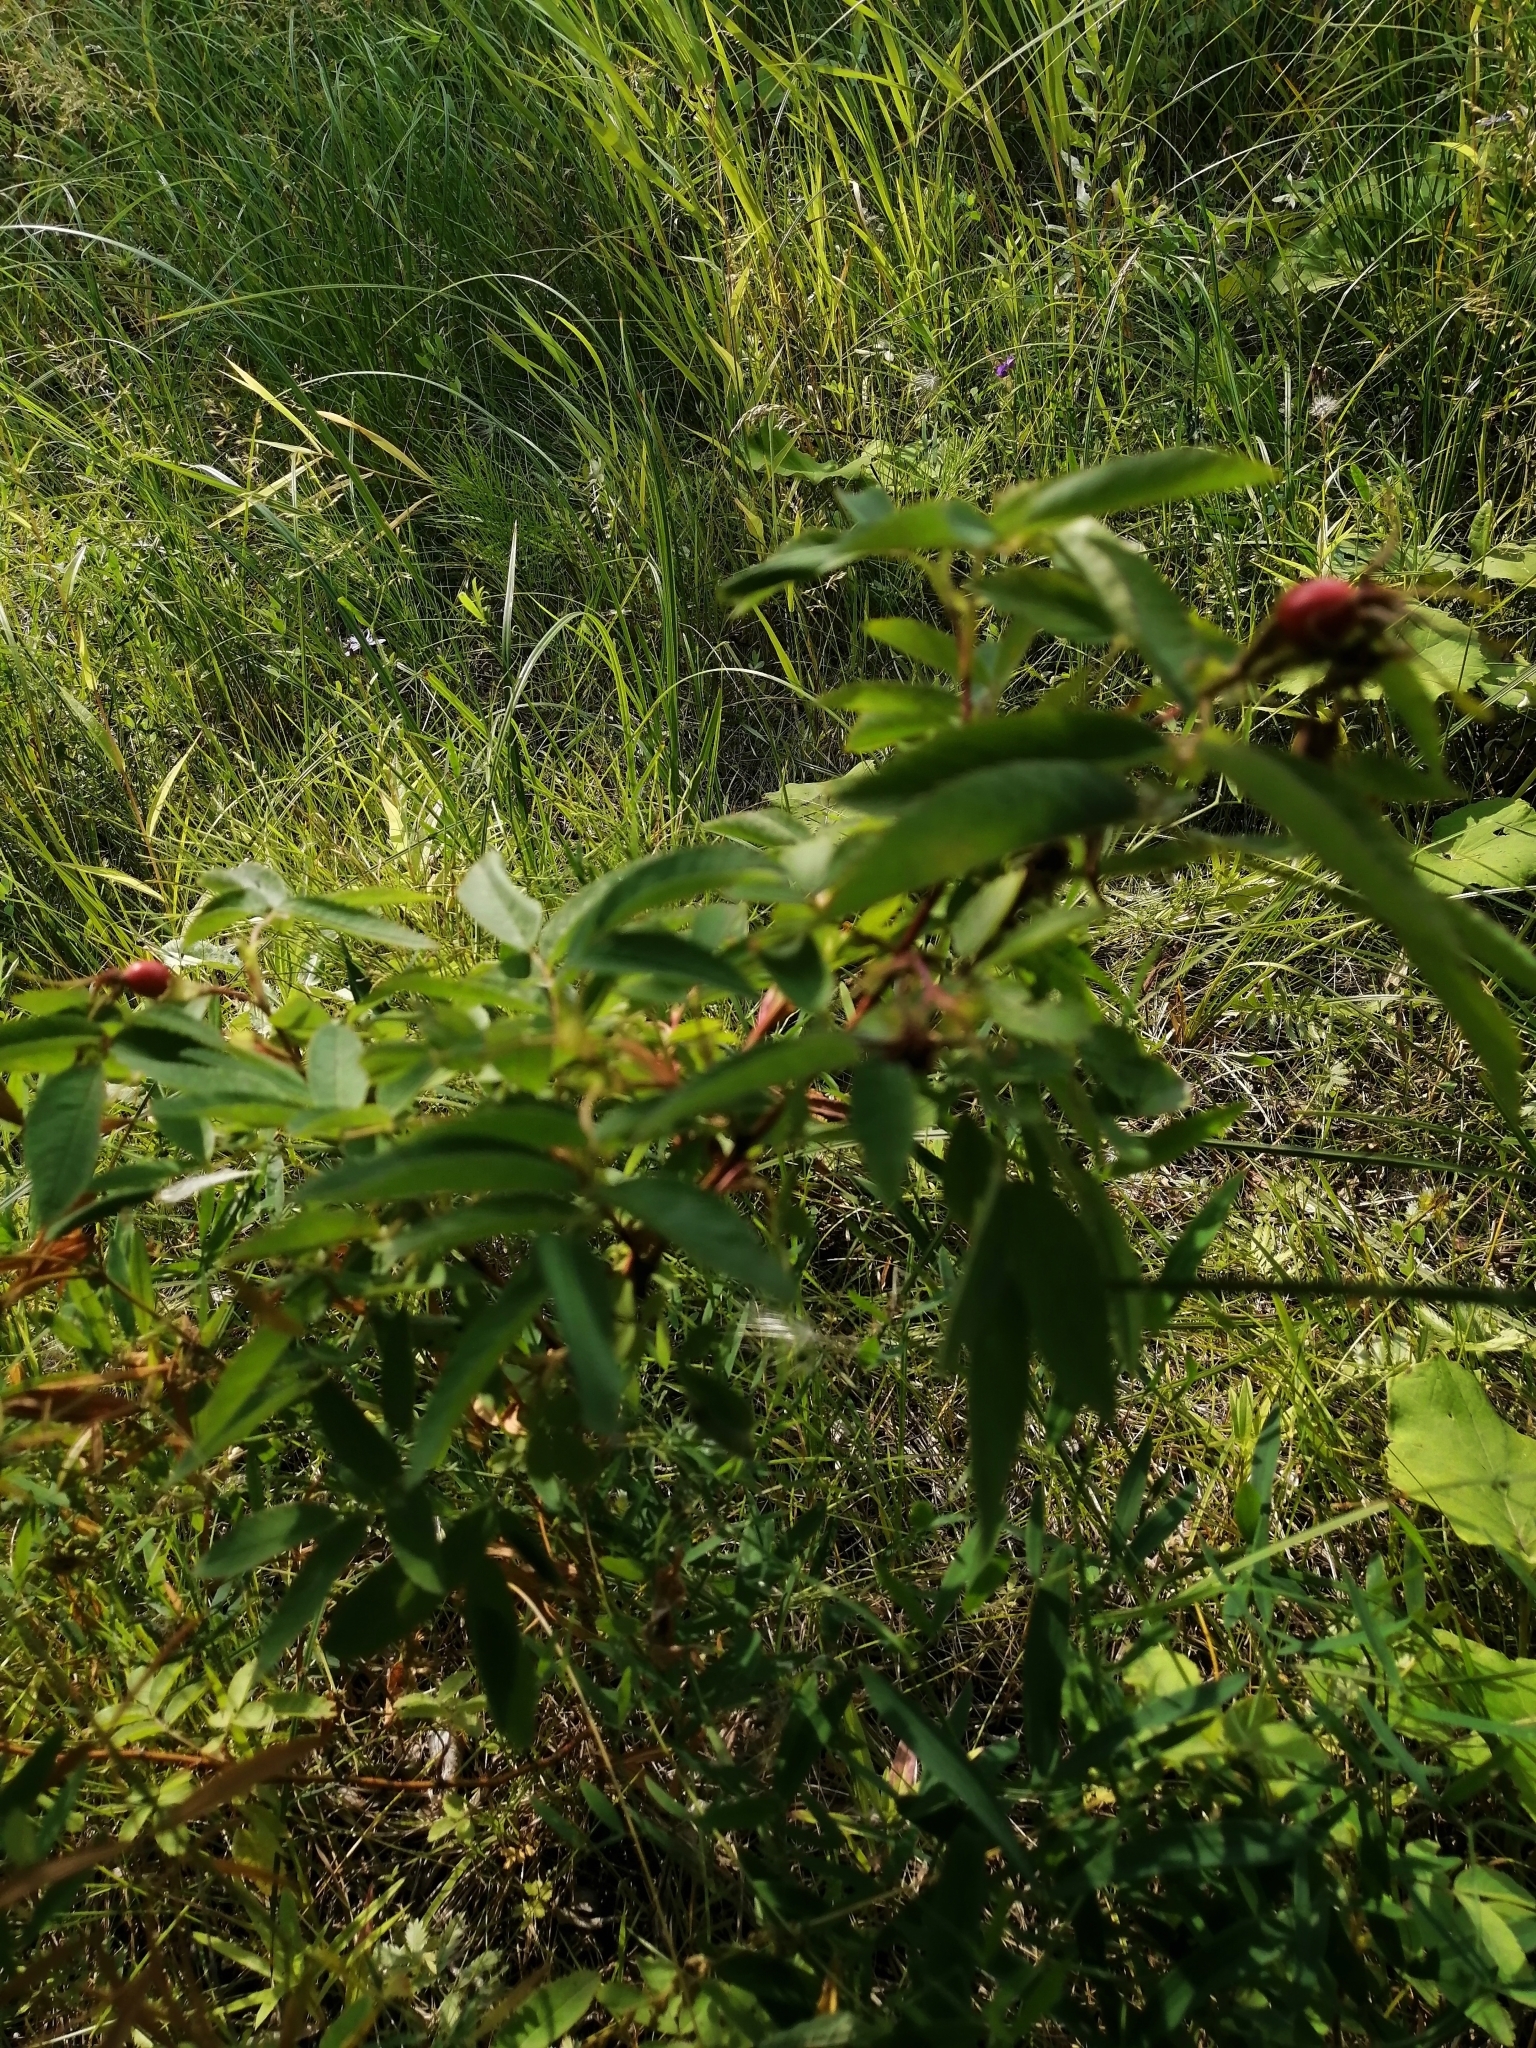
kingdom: Plantae
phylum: Tracheophyta
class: Magnoliopsida
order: Rosales
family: Rosaceae
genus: Rosa
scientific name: Rosa
